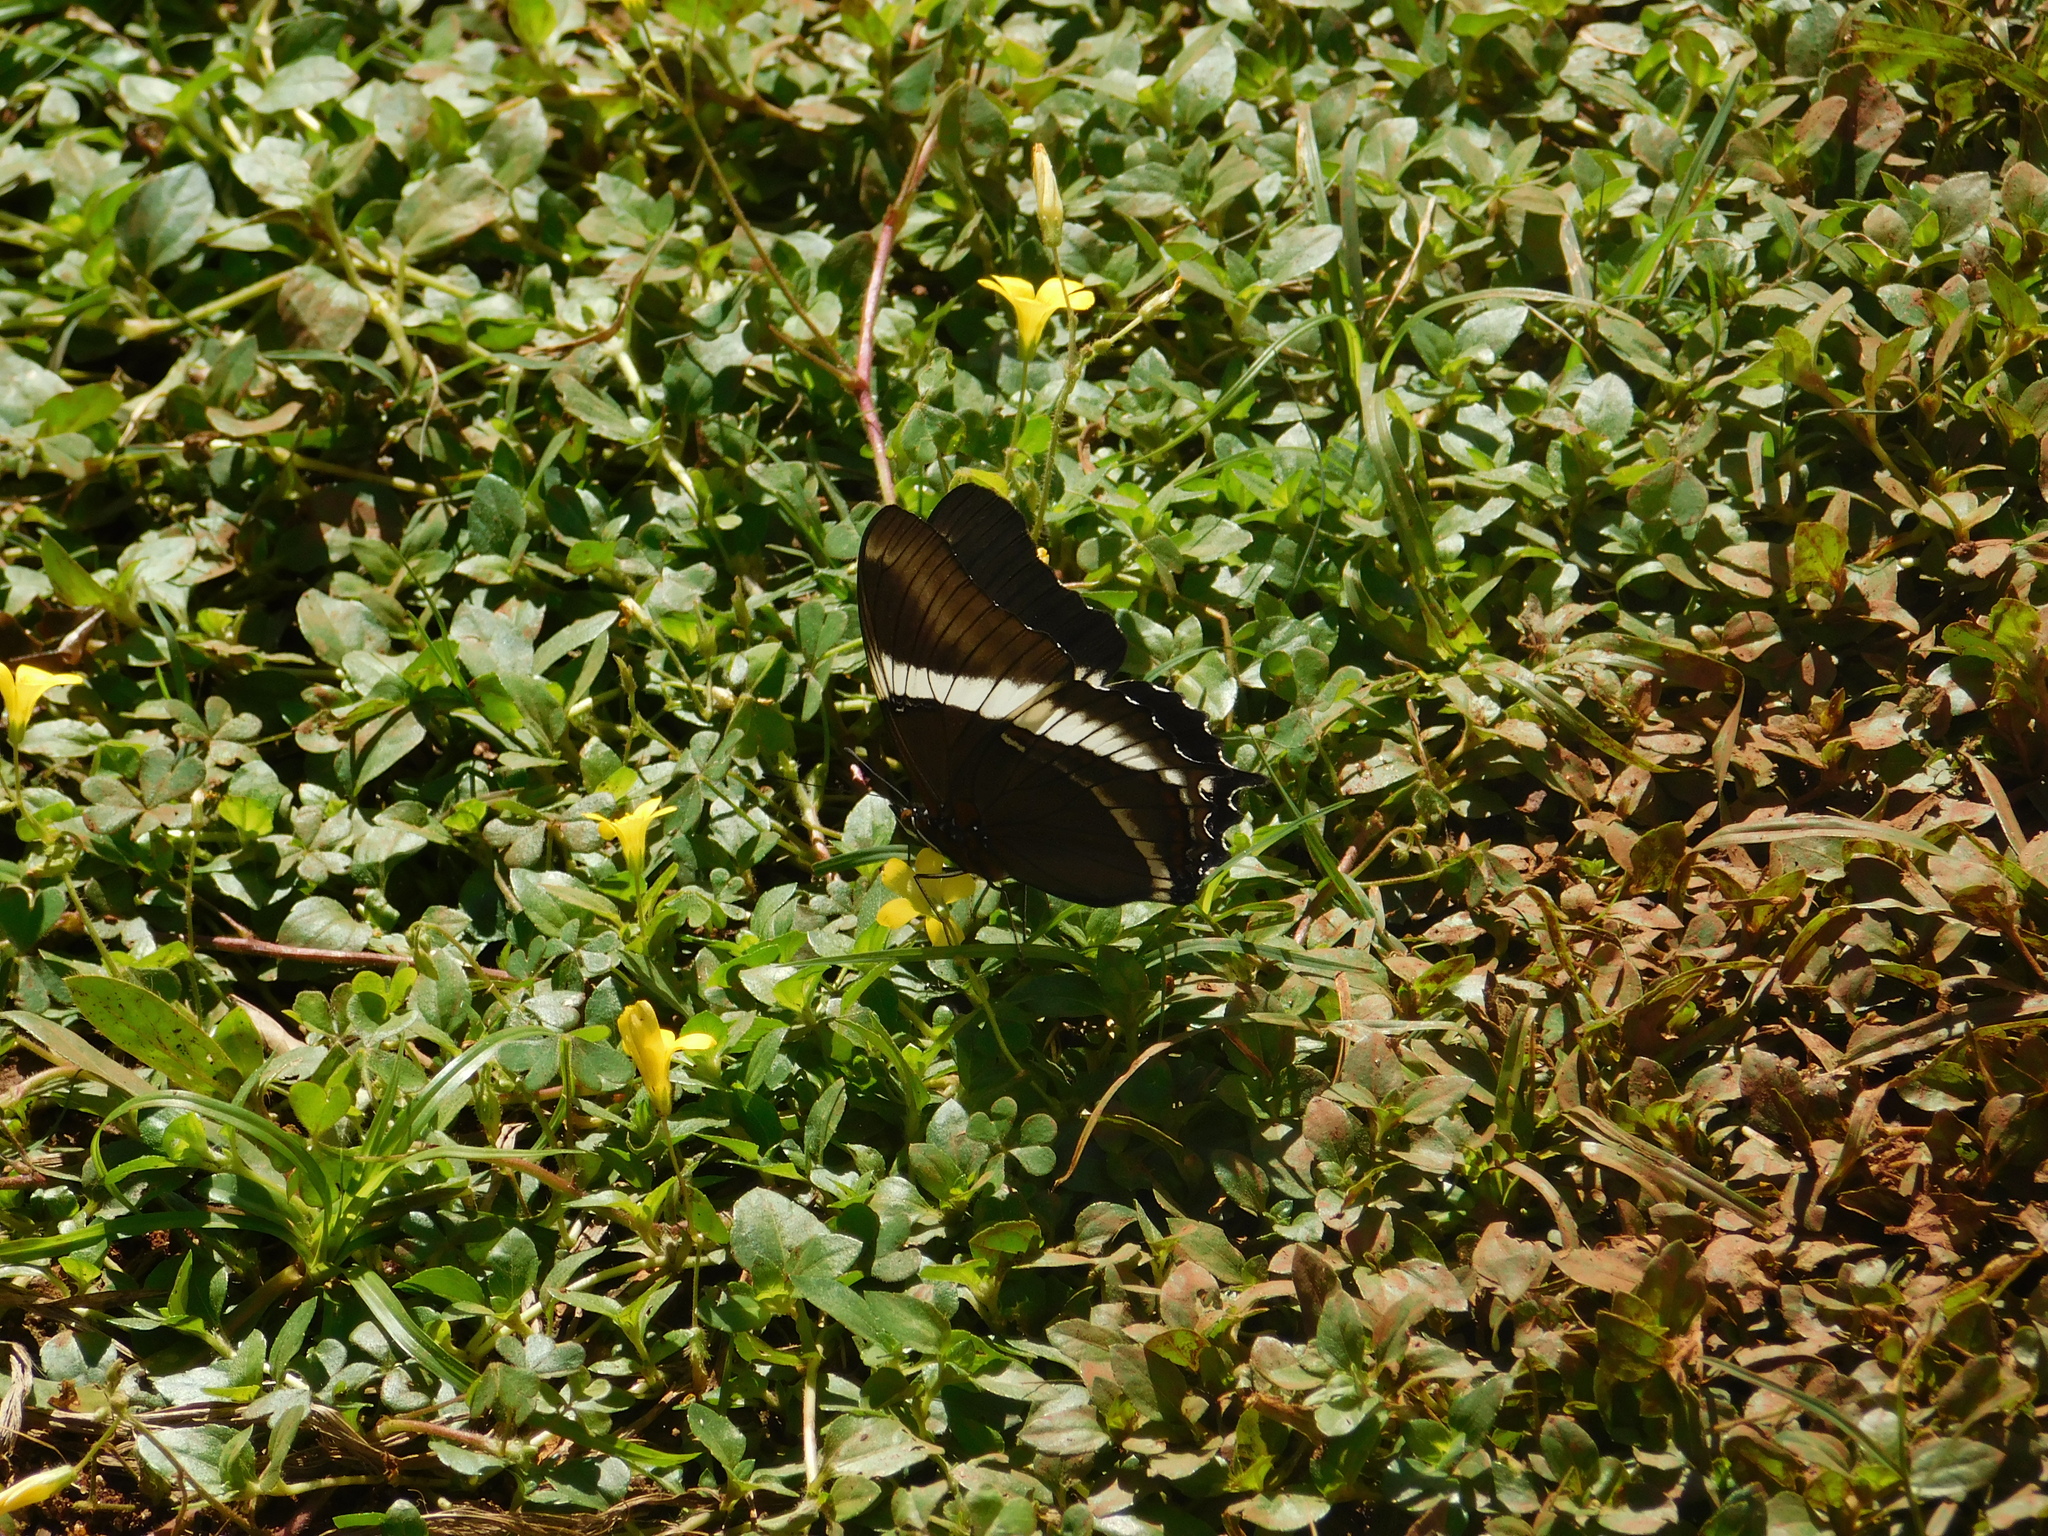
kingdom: Animalia
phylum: Arthropoda
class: Insecta
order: Lepidoptera
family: Nymphalidae
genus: Siproeta
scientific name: Siproeta epaphus
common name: Rusty-tipped page
